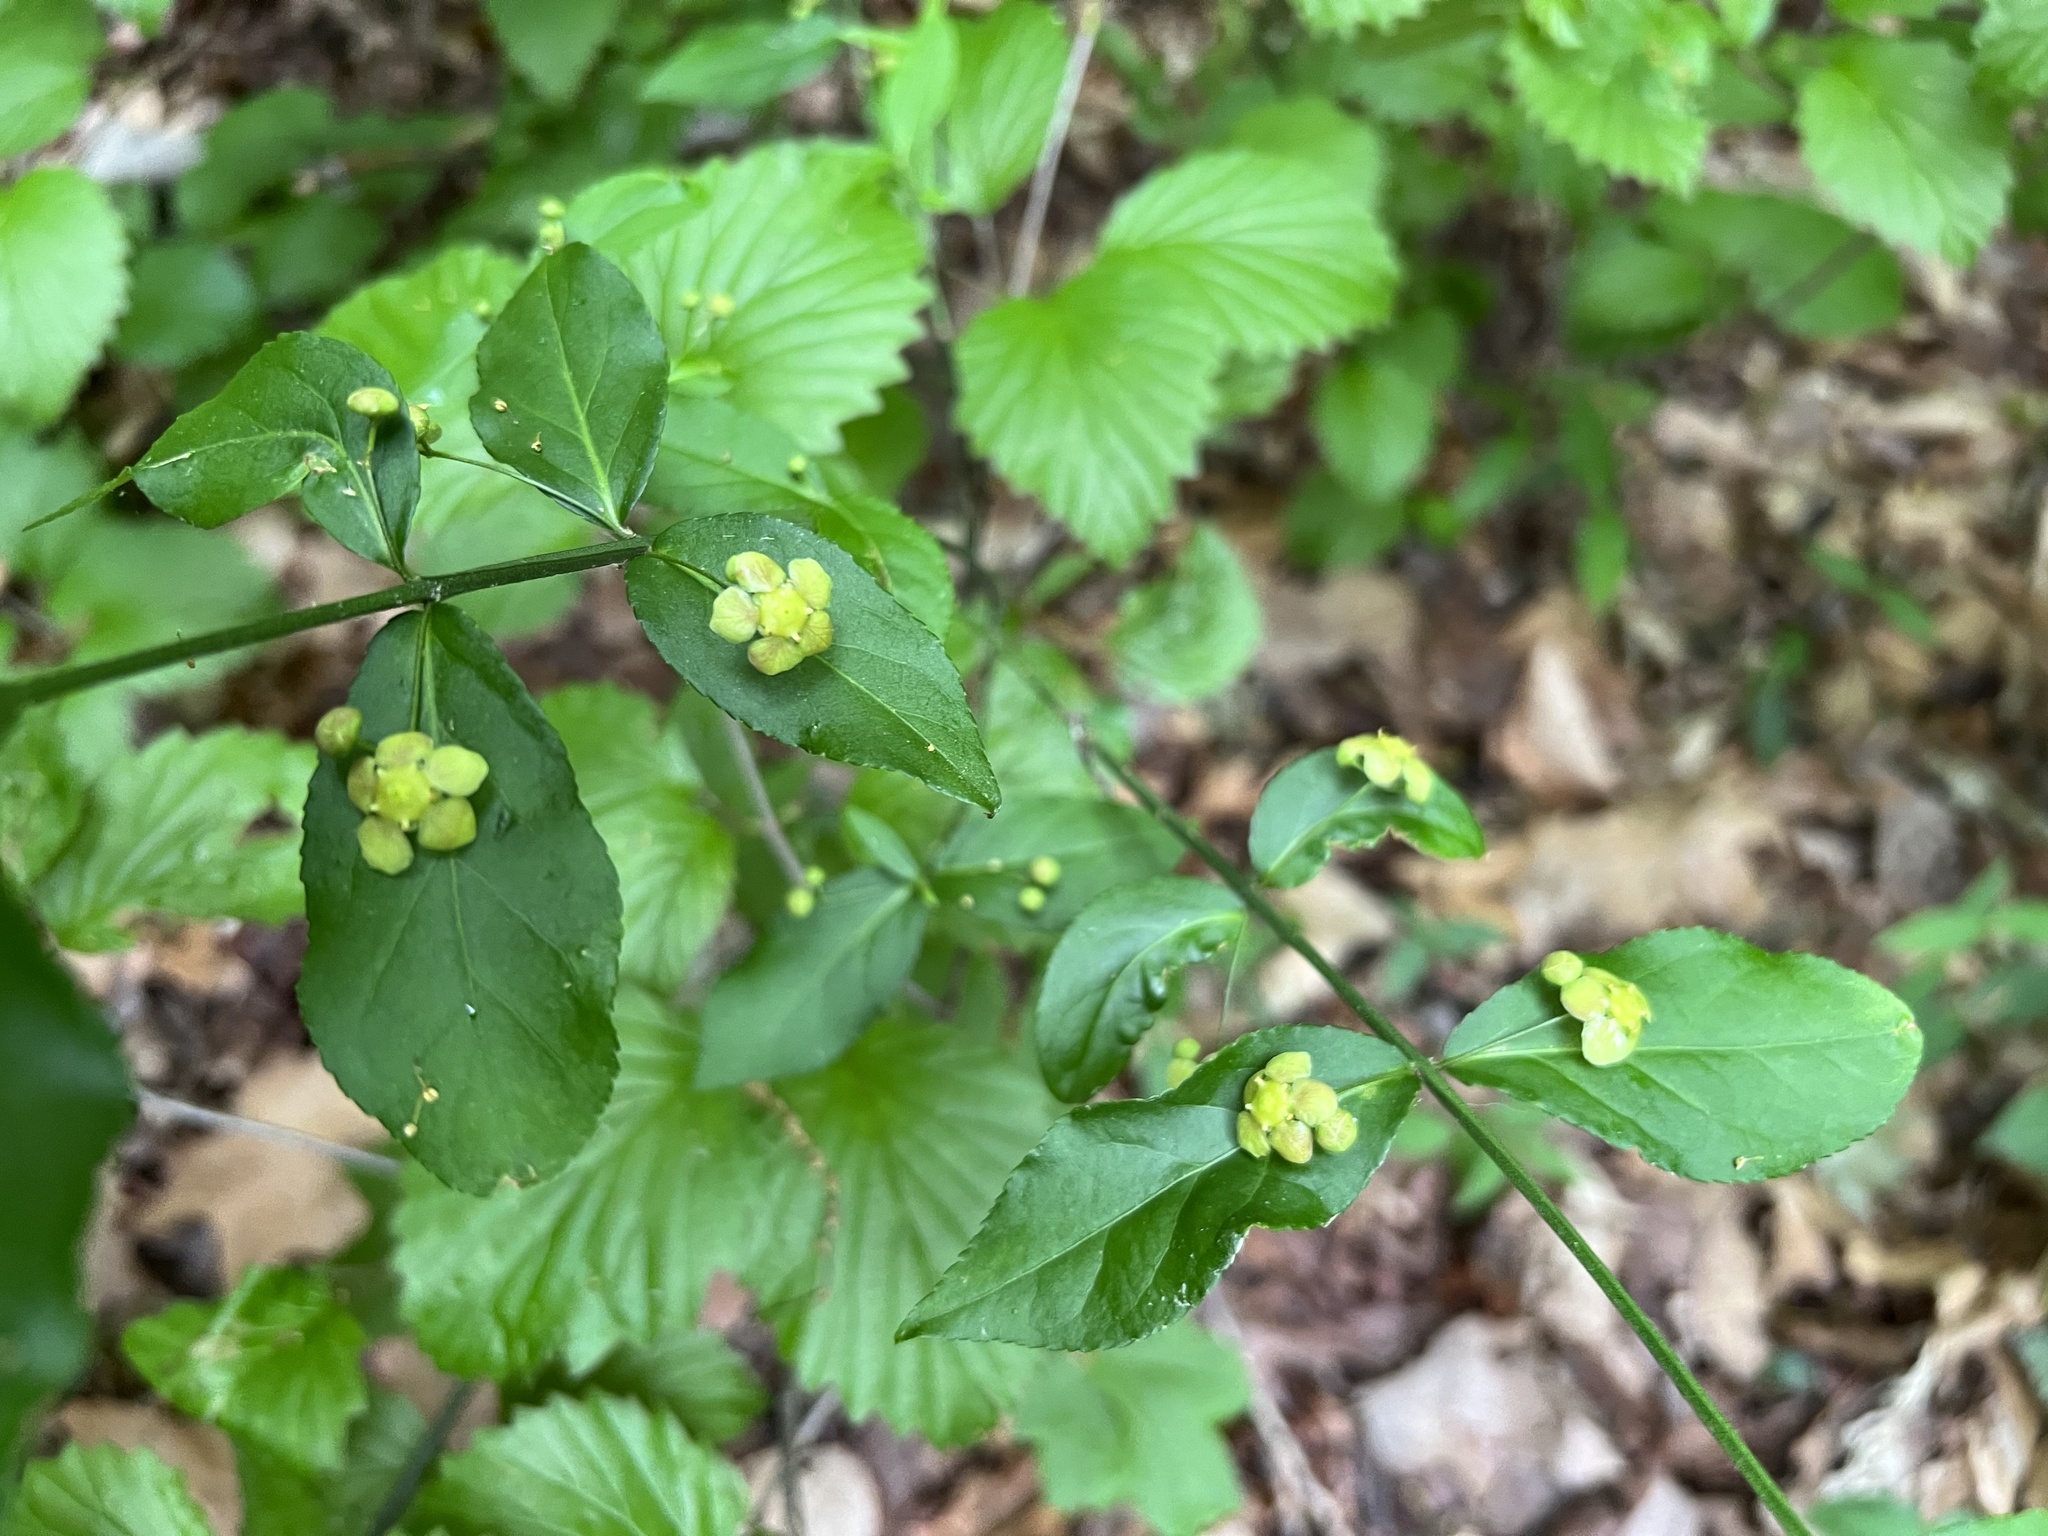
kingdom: Plantae
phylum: Tracheophyta
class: Magnoliopsida
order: Celastrales
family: Celastraceae
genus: Euonymus
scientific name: Euonymus americanus
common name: Bursting-heart
